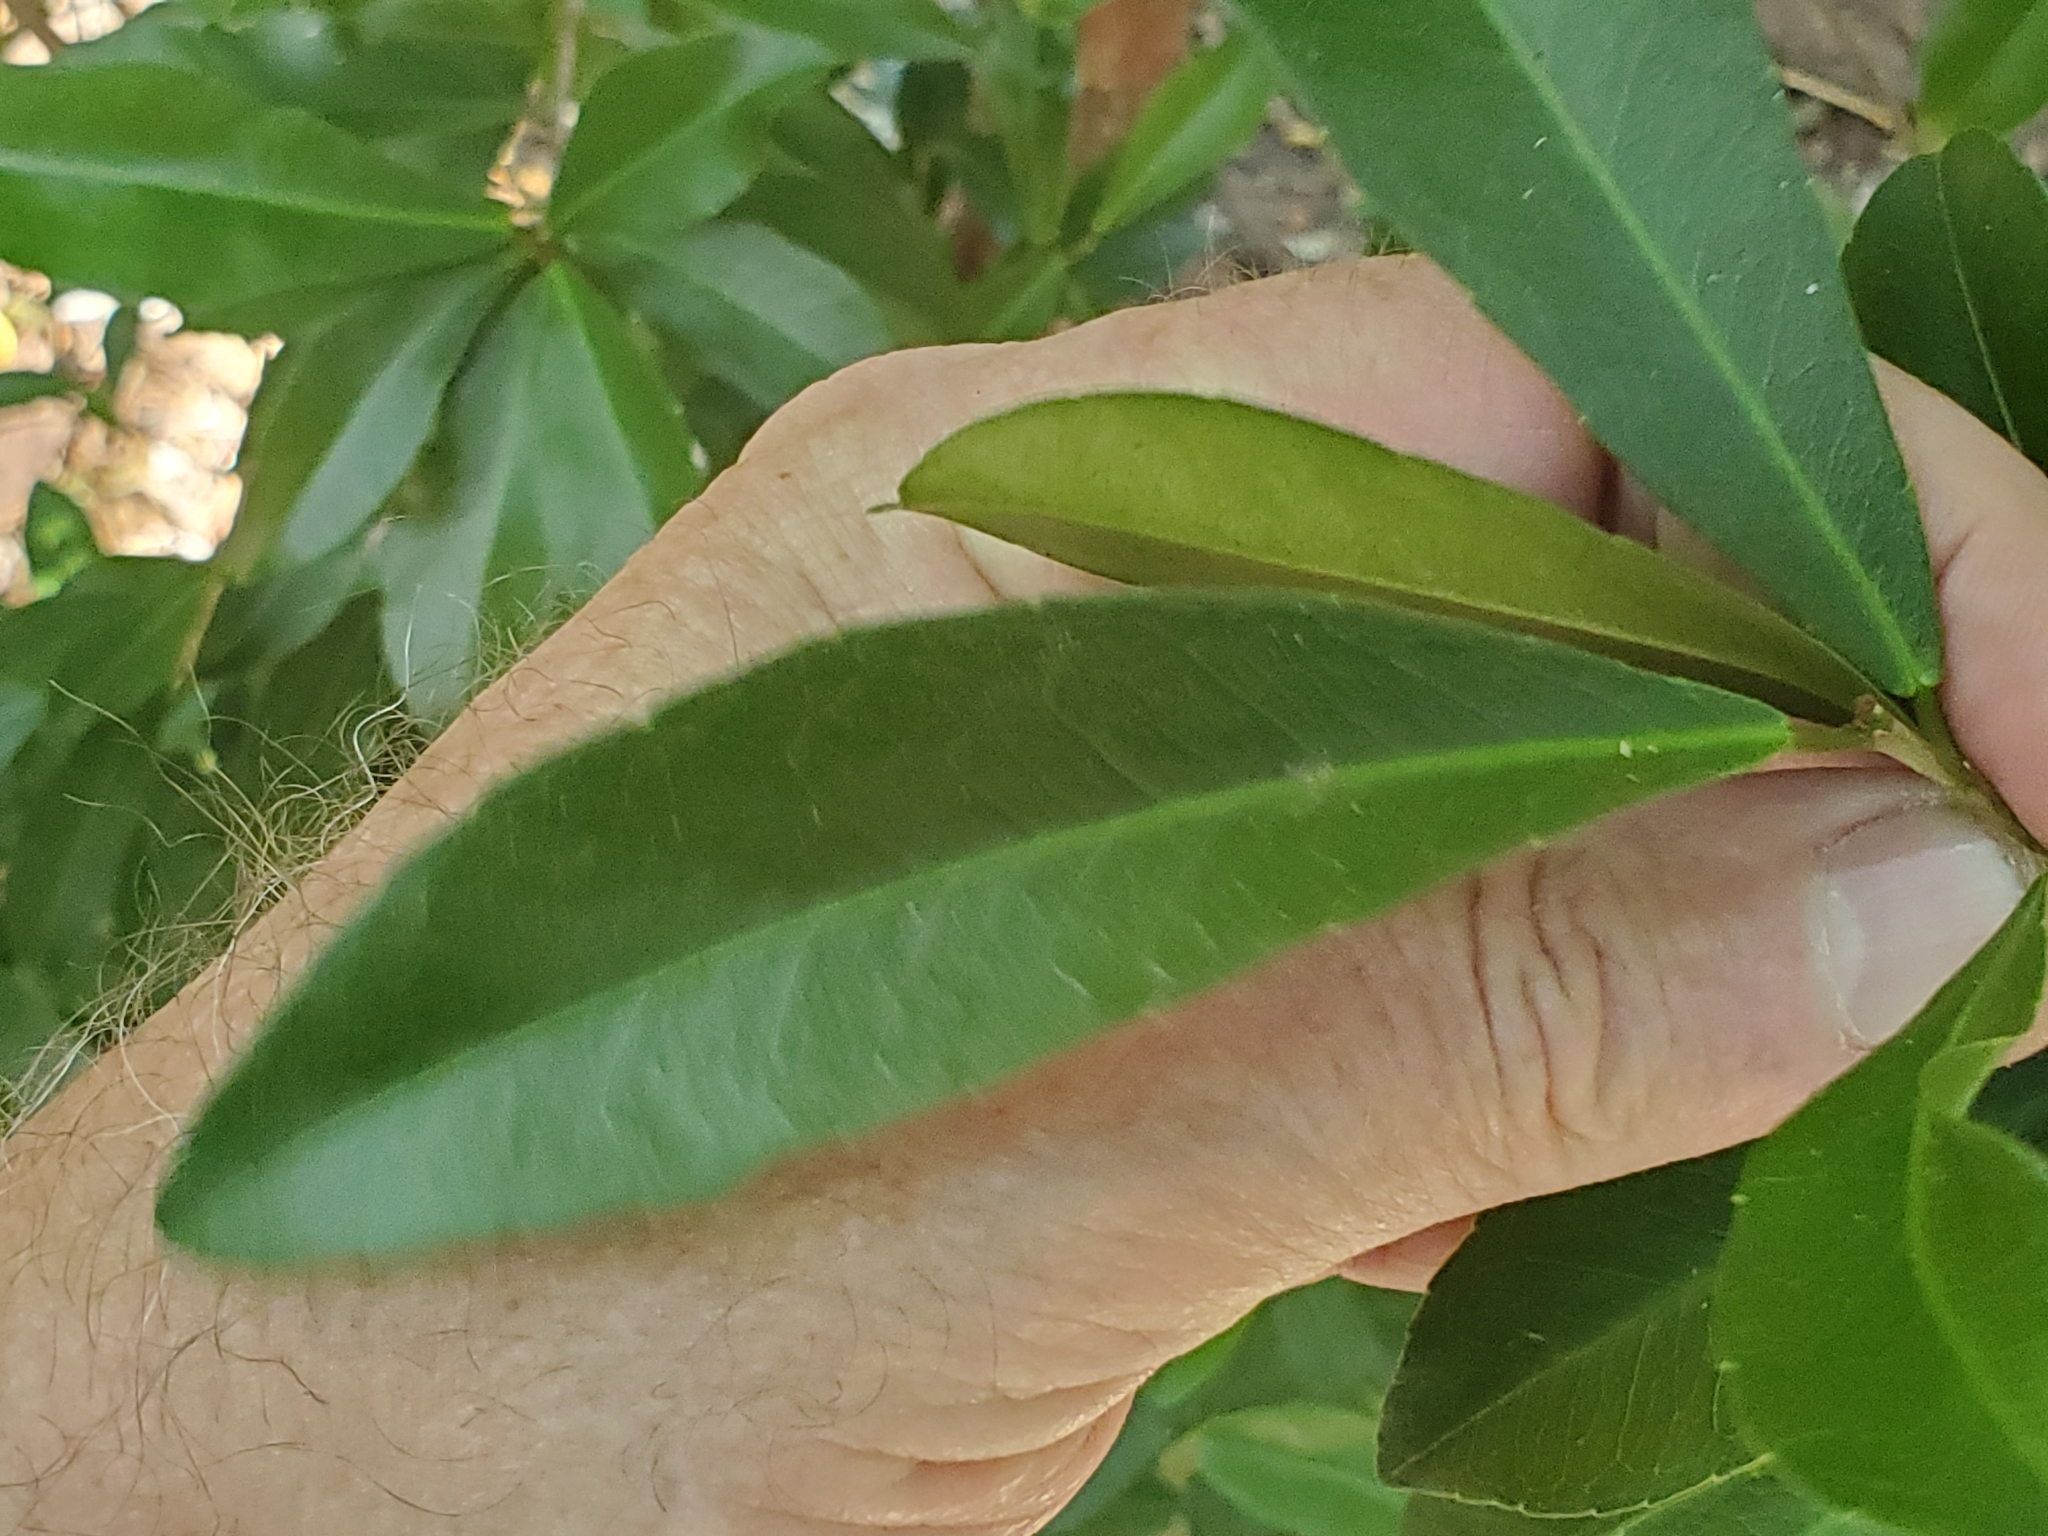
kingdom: Plantae
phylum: Tracheophyta
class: Magnoliopsida
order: Malpighiales
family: Euphorbiaceae
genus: Gymnanthes
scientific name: Gymnanthes lucida
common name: Oysterwood
